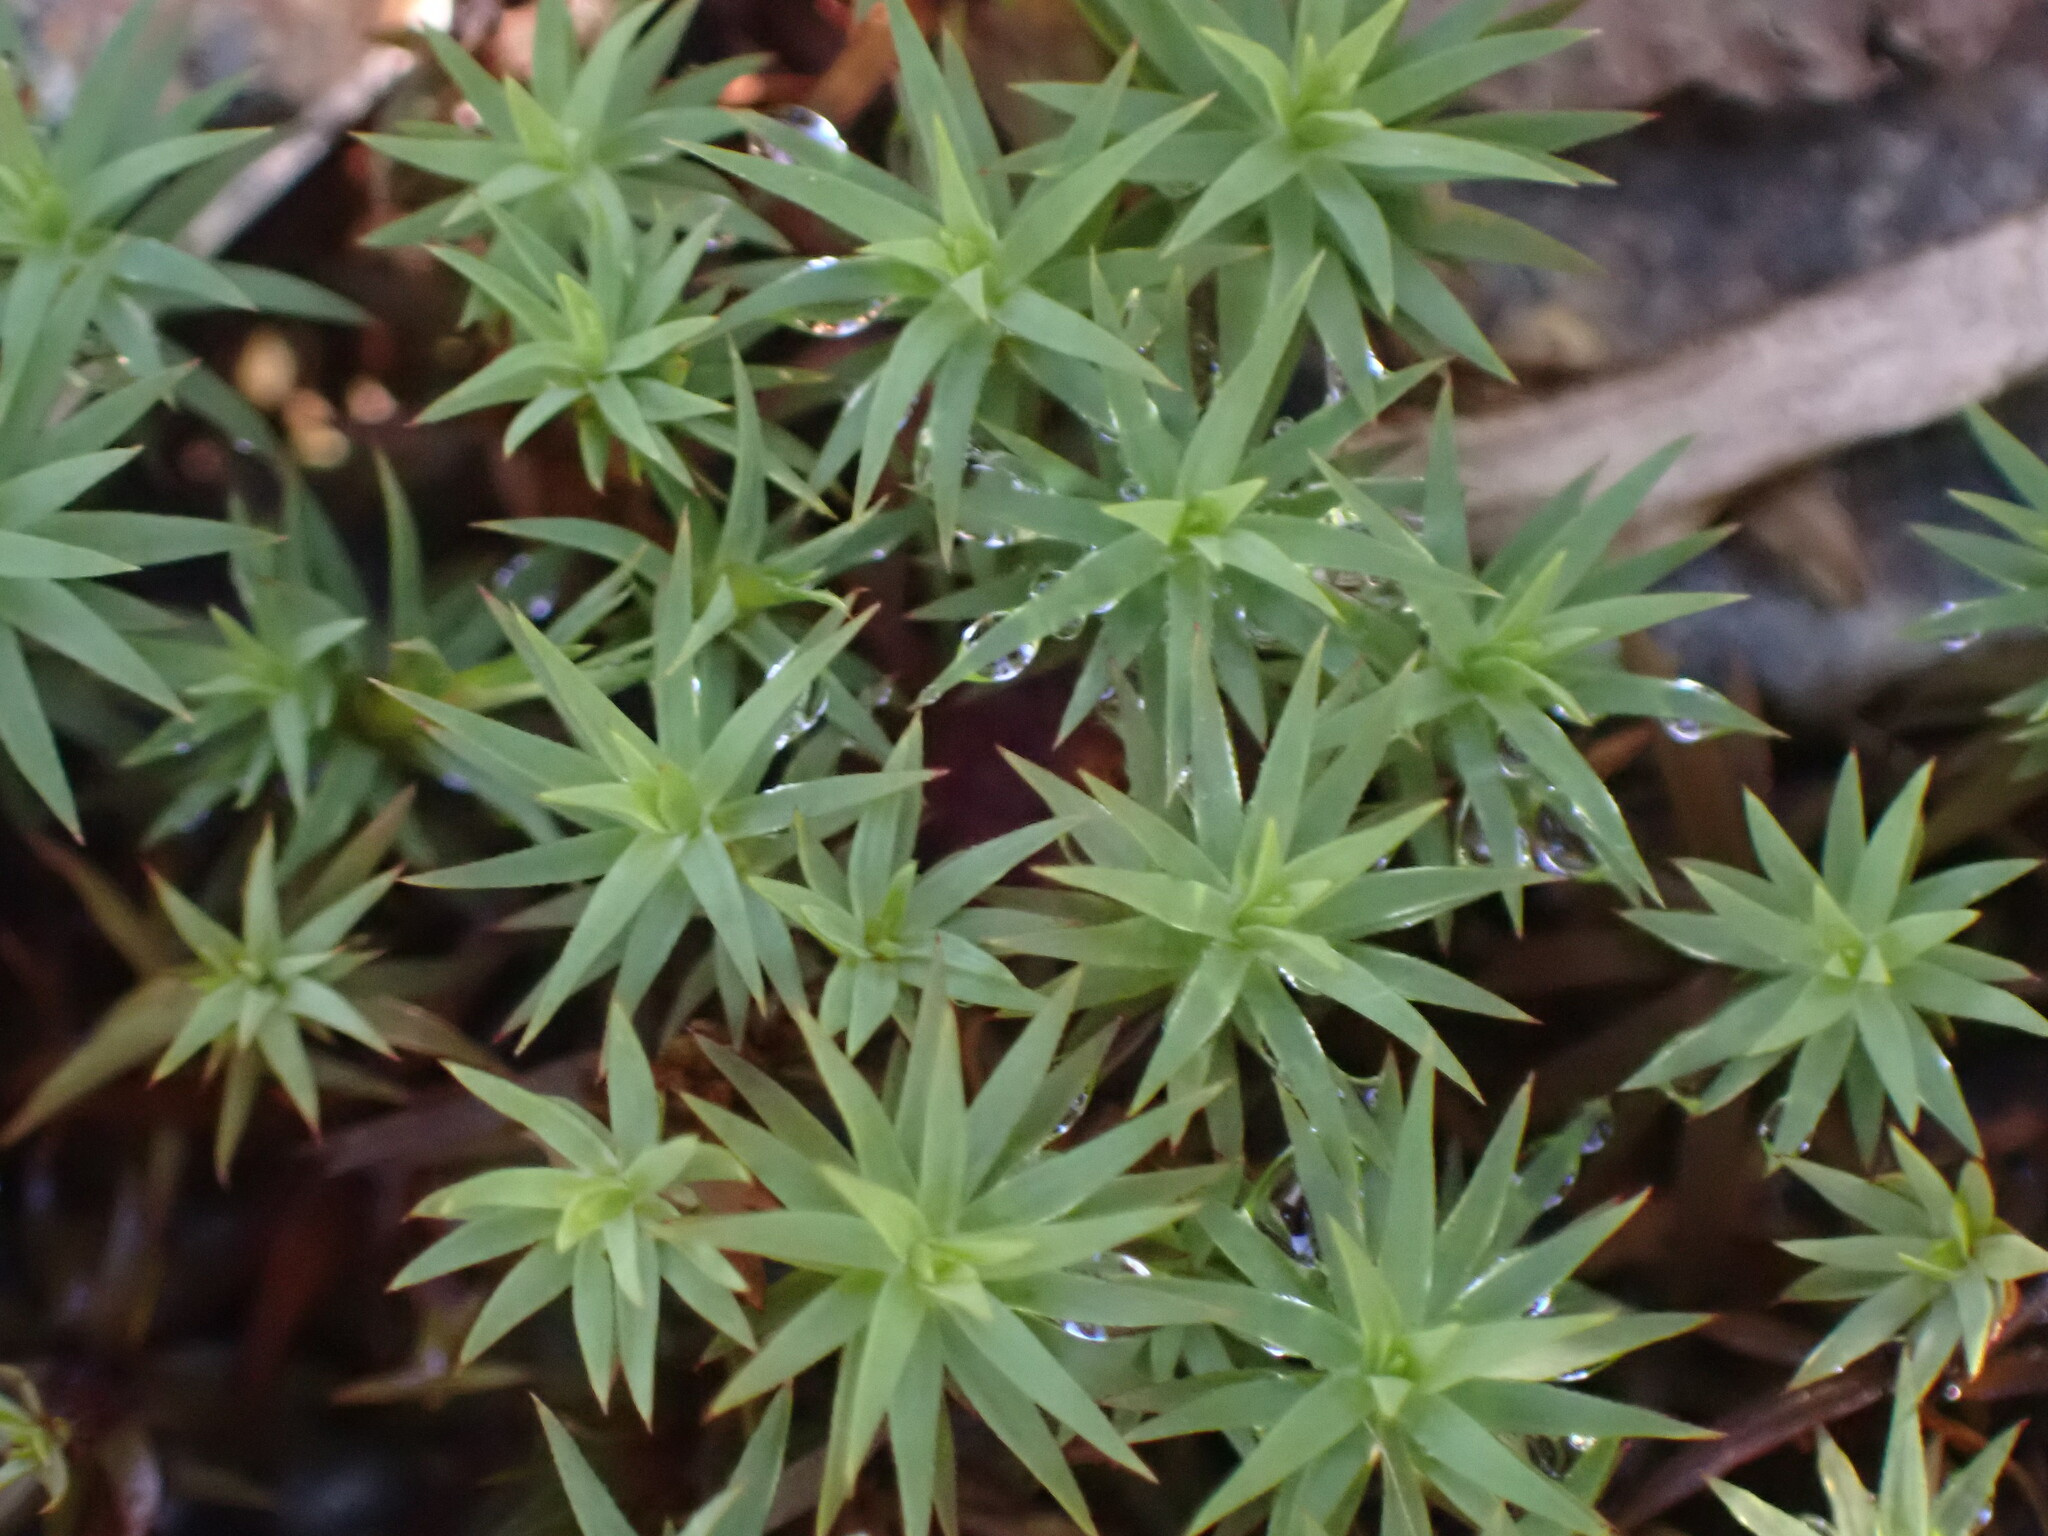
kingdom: Plantae
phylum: Bryophyta
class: Polytrichopsida
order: Polytrichales
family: Polytrichaceae
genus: Pogonatum
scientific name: Pogonatum urnigerum
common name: Urn hair moss
